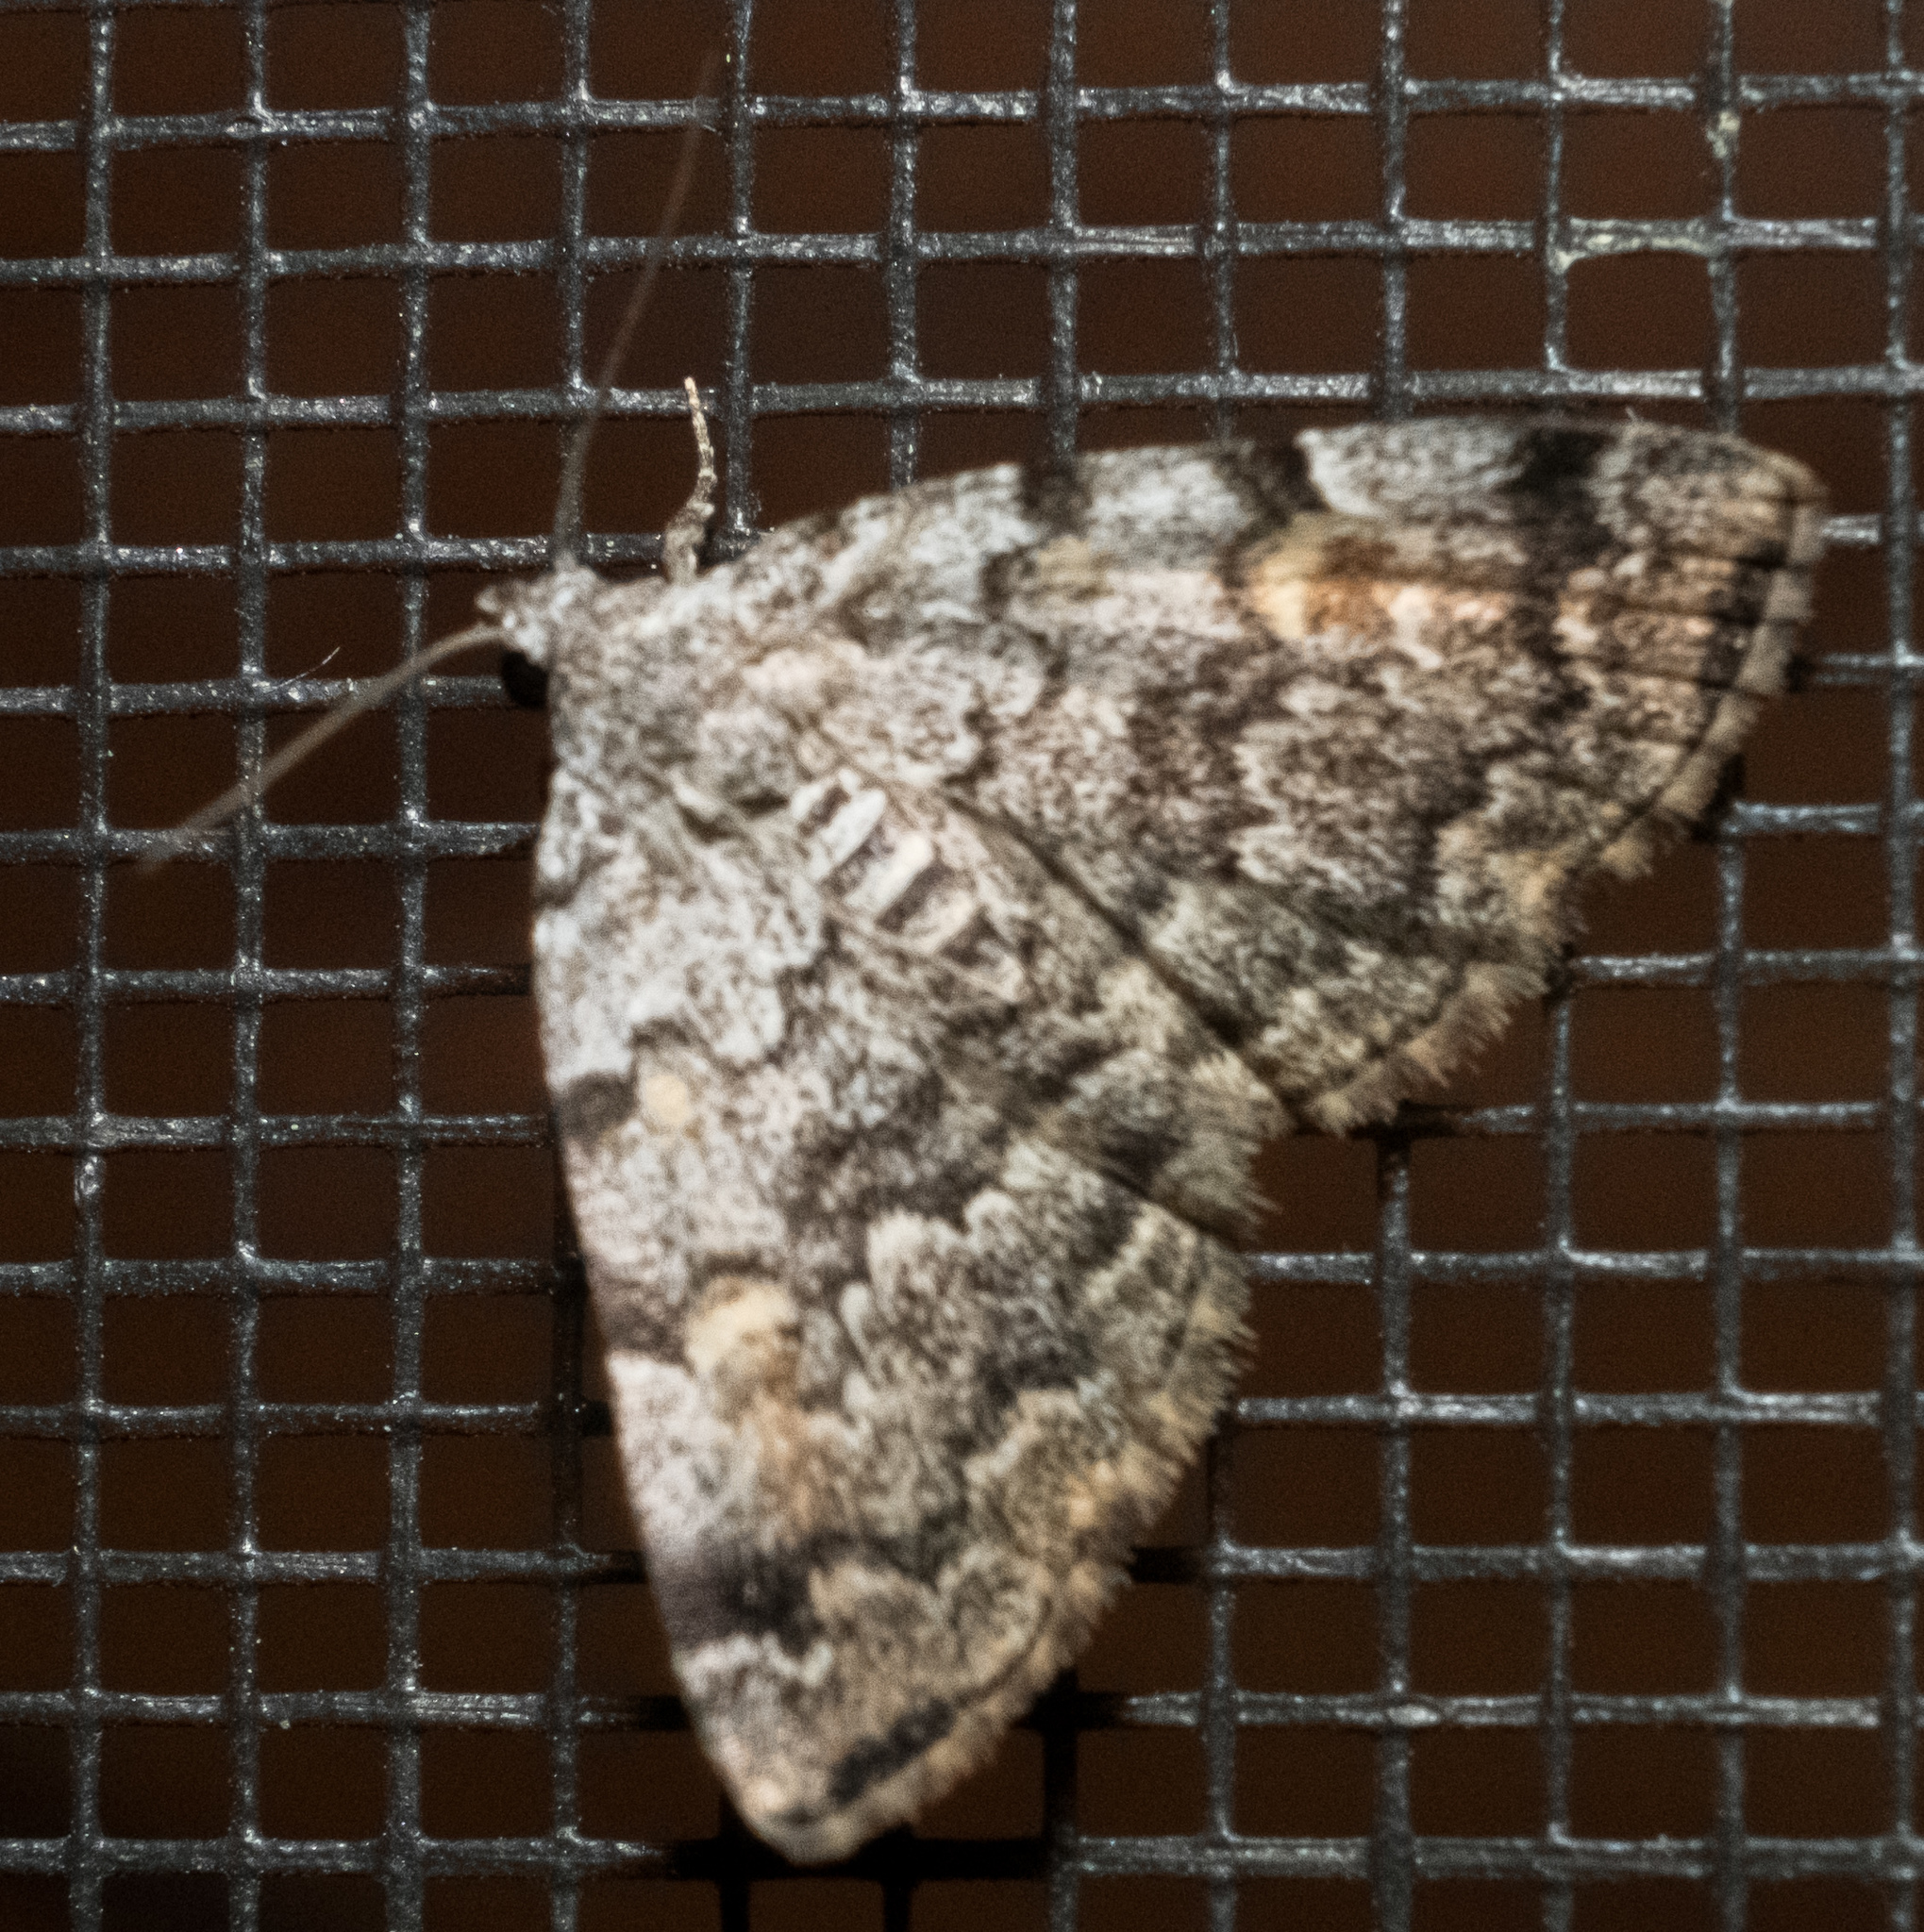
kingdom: Animalia
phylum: Arthropoda
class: Insecta
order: Lepidoptera
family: Erebidae
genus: Idia
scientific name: Idia americalis
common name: American idia moth
